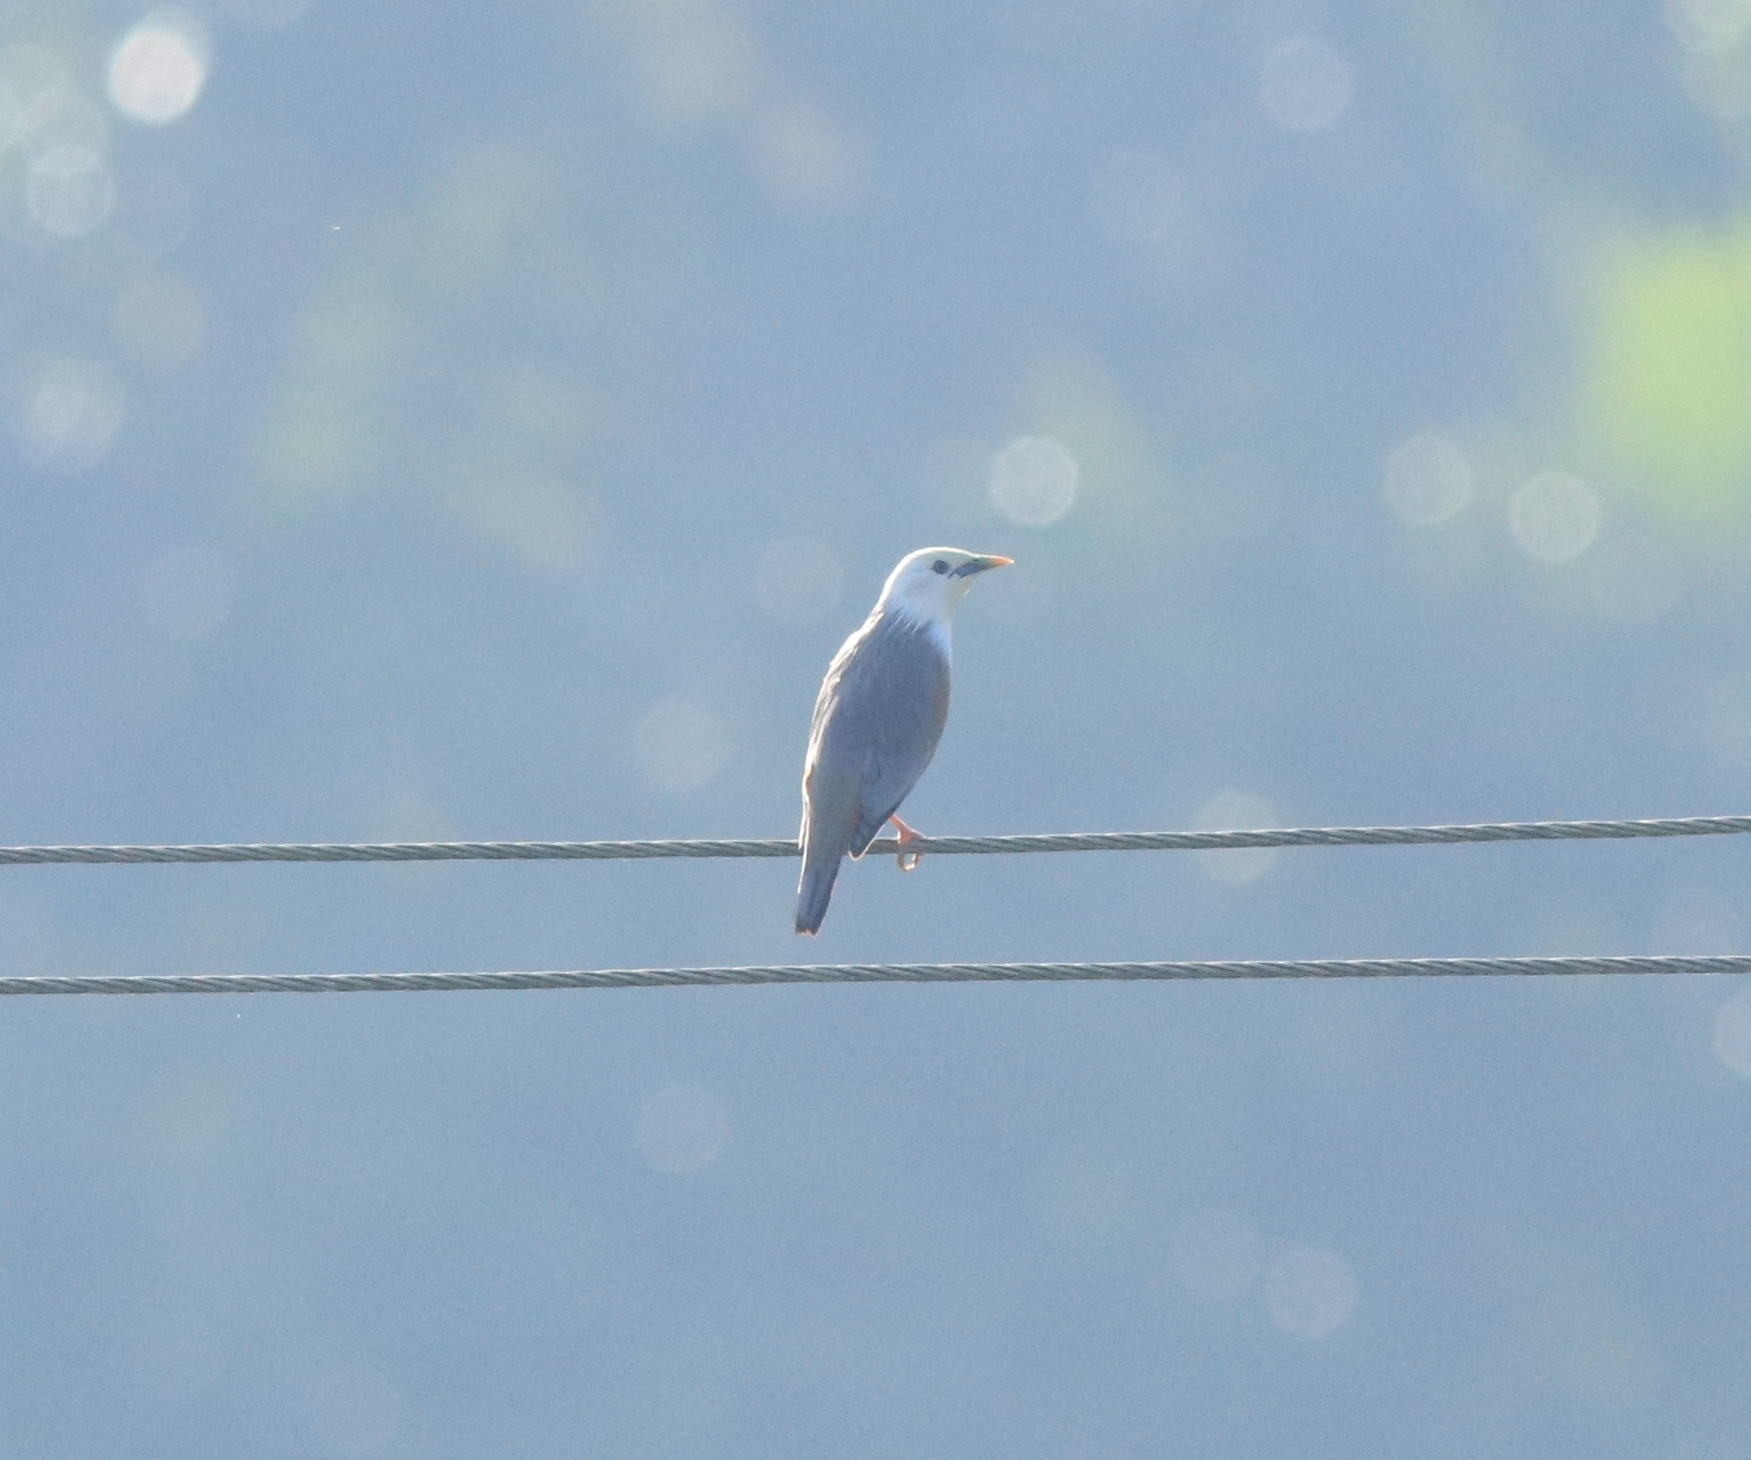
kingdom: Animalia
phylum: Chordata
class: Aves
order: Passeriformes
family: Sturnidae
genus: Sturnia
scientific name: Sturnia blythii
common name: Malabar starling
